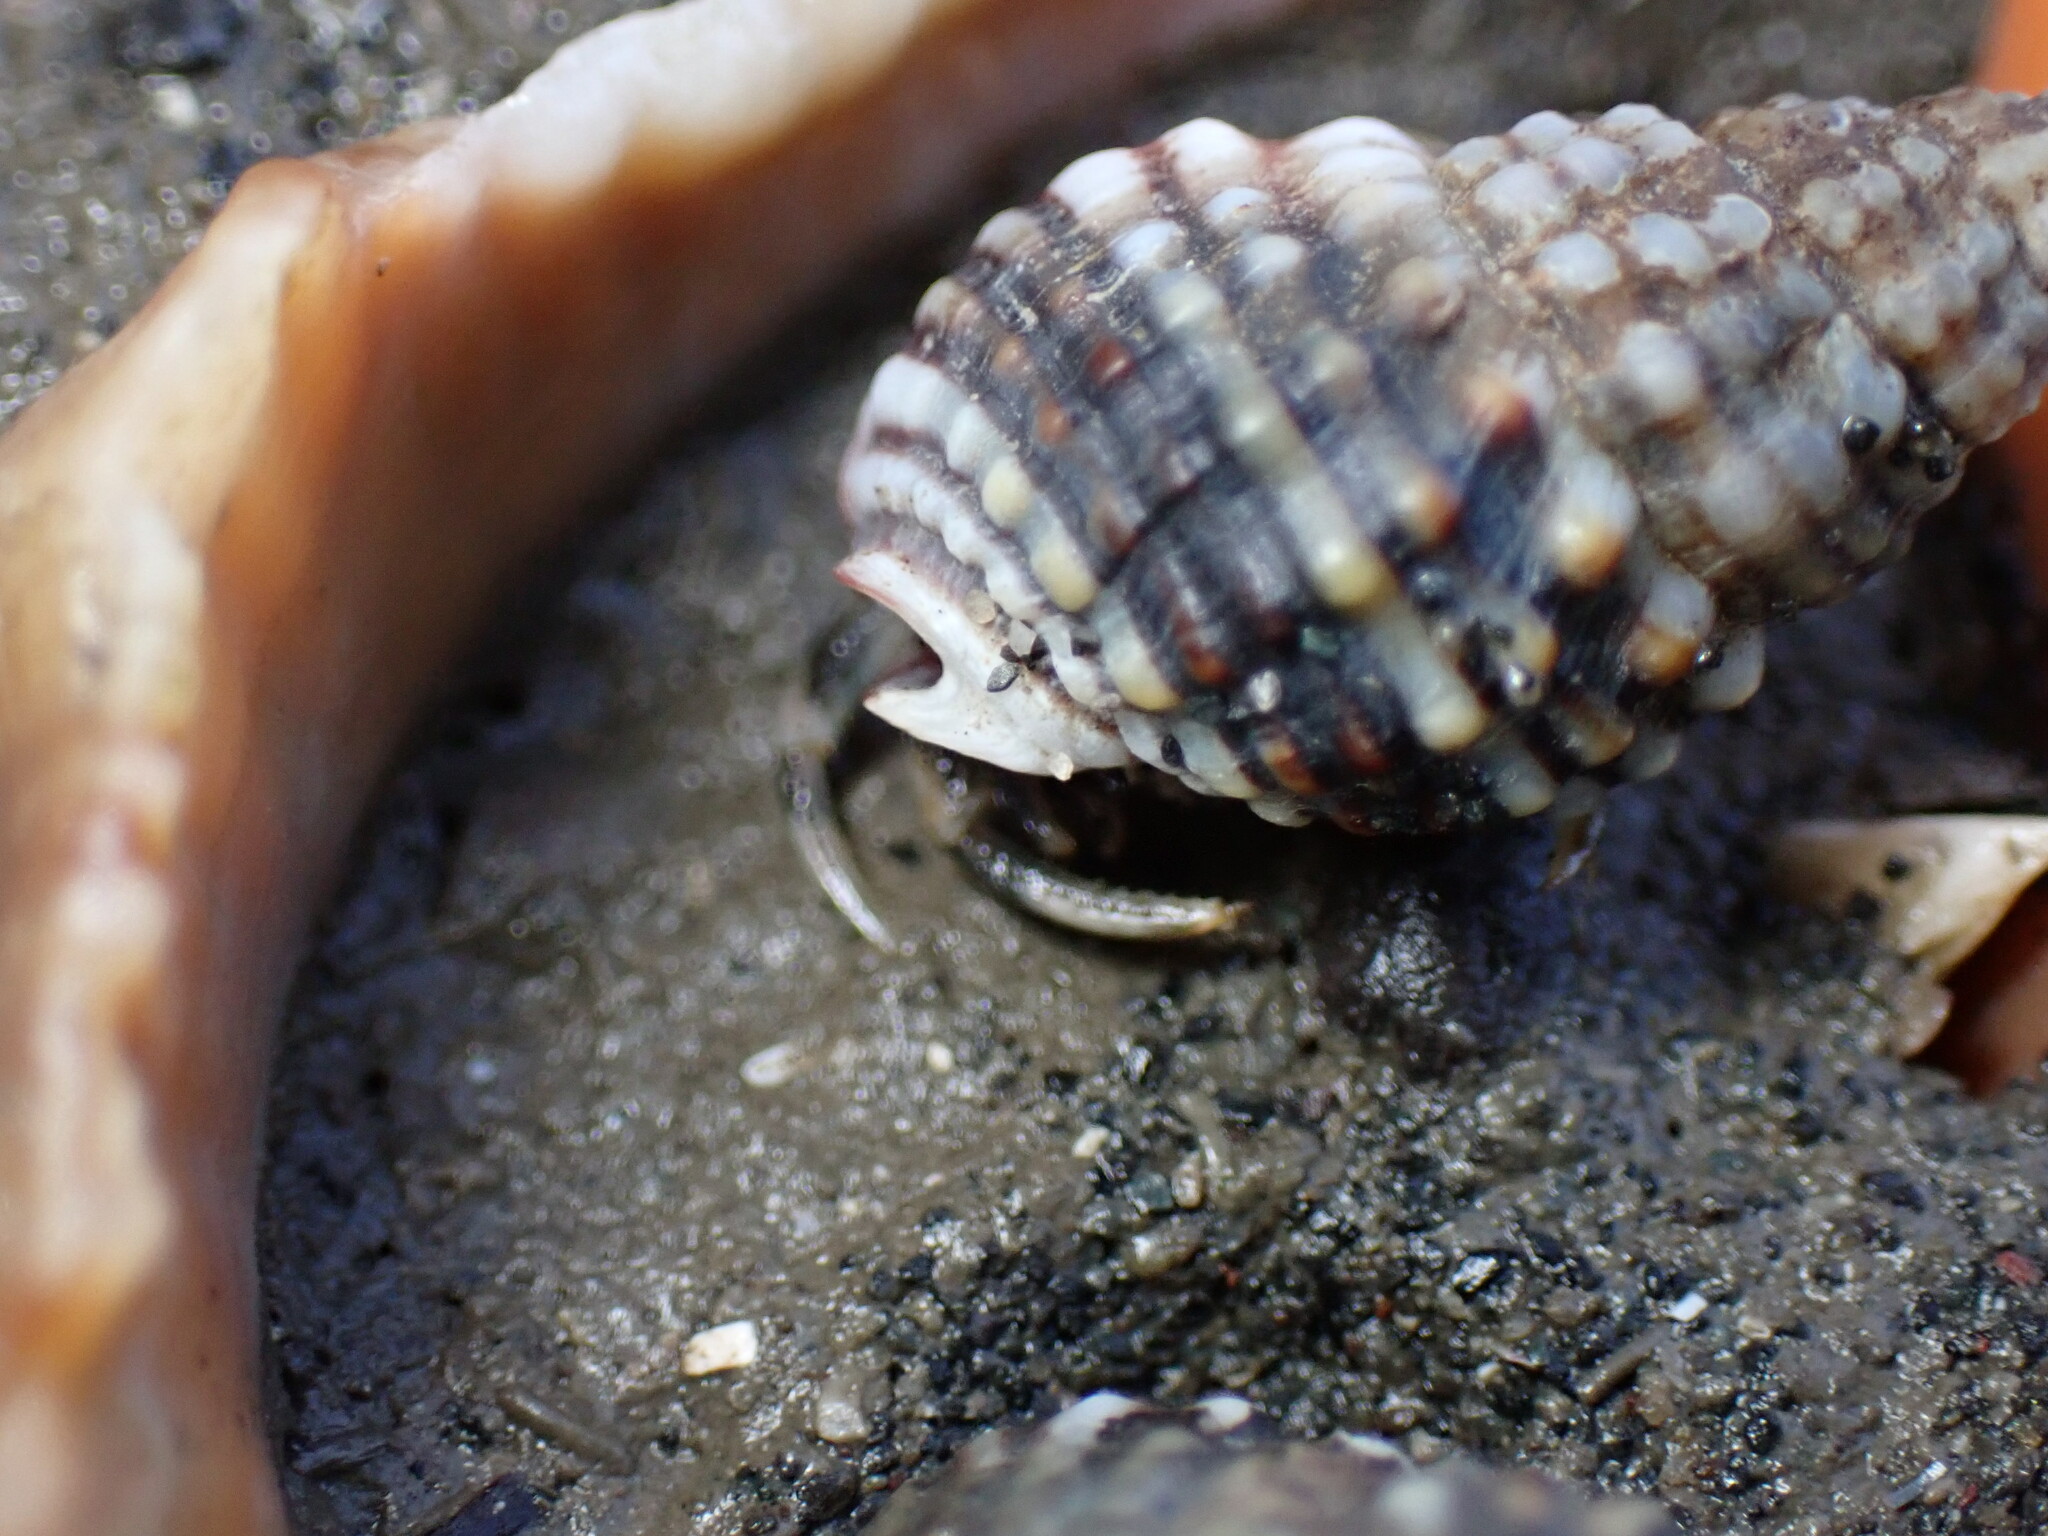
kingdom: Animalia
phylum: Arthropoda
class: Malacostraca
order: Decapoda
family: Paguridae
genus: Pagurus
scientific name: Pagurus minutus
